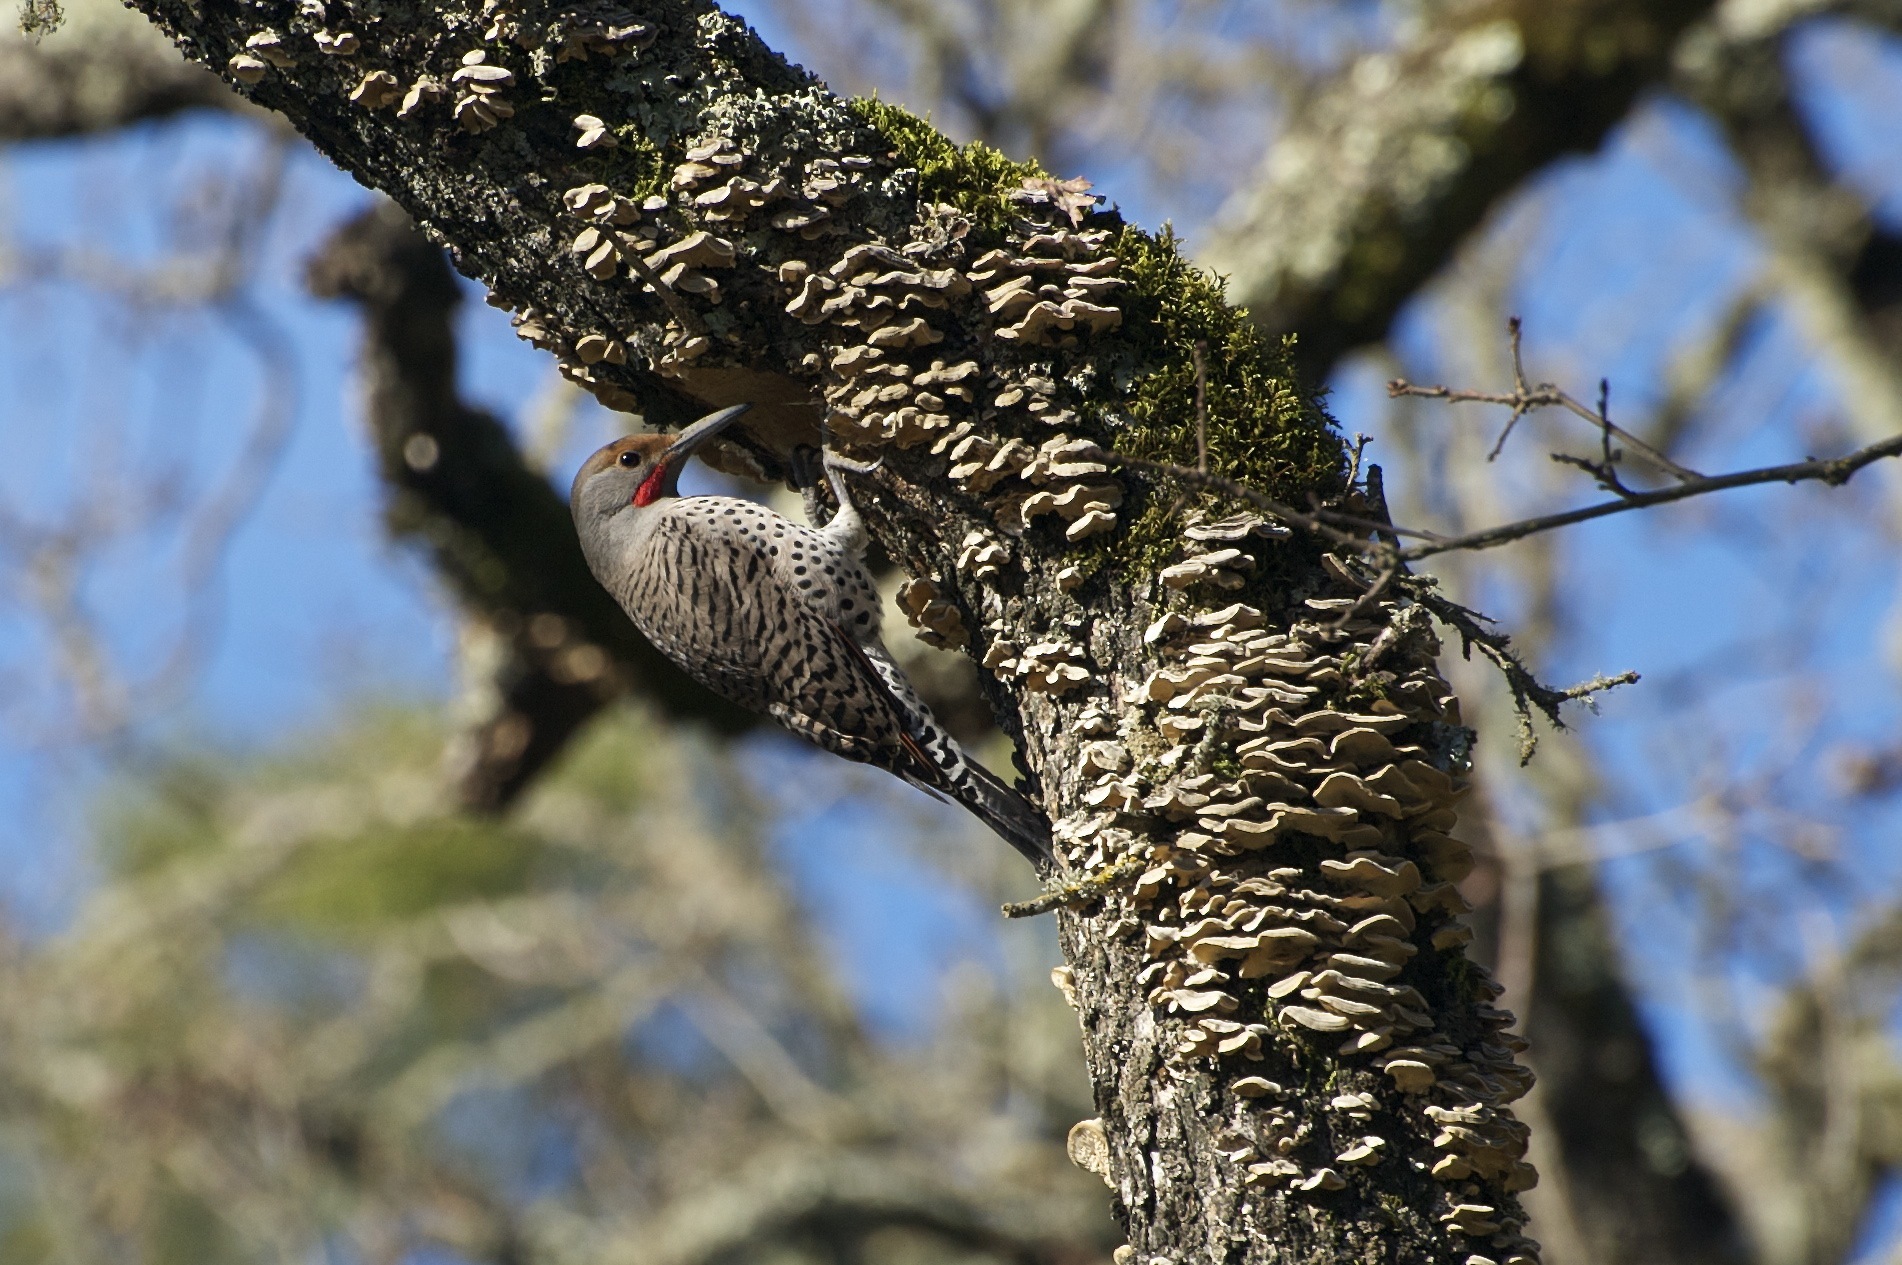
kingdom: Animalia
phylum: Chordata
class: Aves
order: Piciformes
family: Picidae
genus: Colaptes
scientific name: Colaptes auratus
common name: Northern flicker
